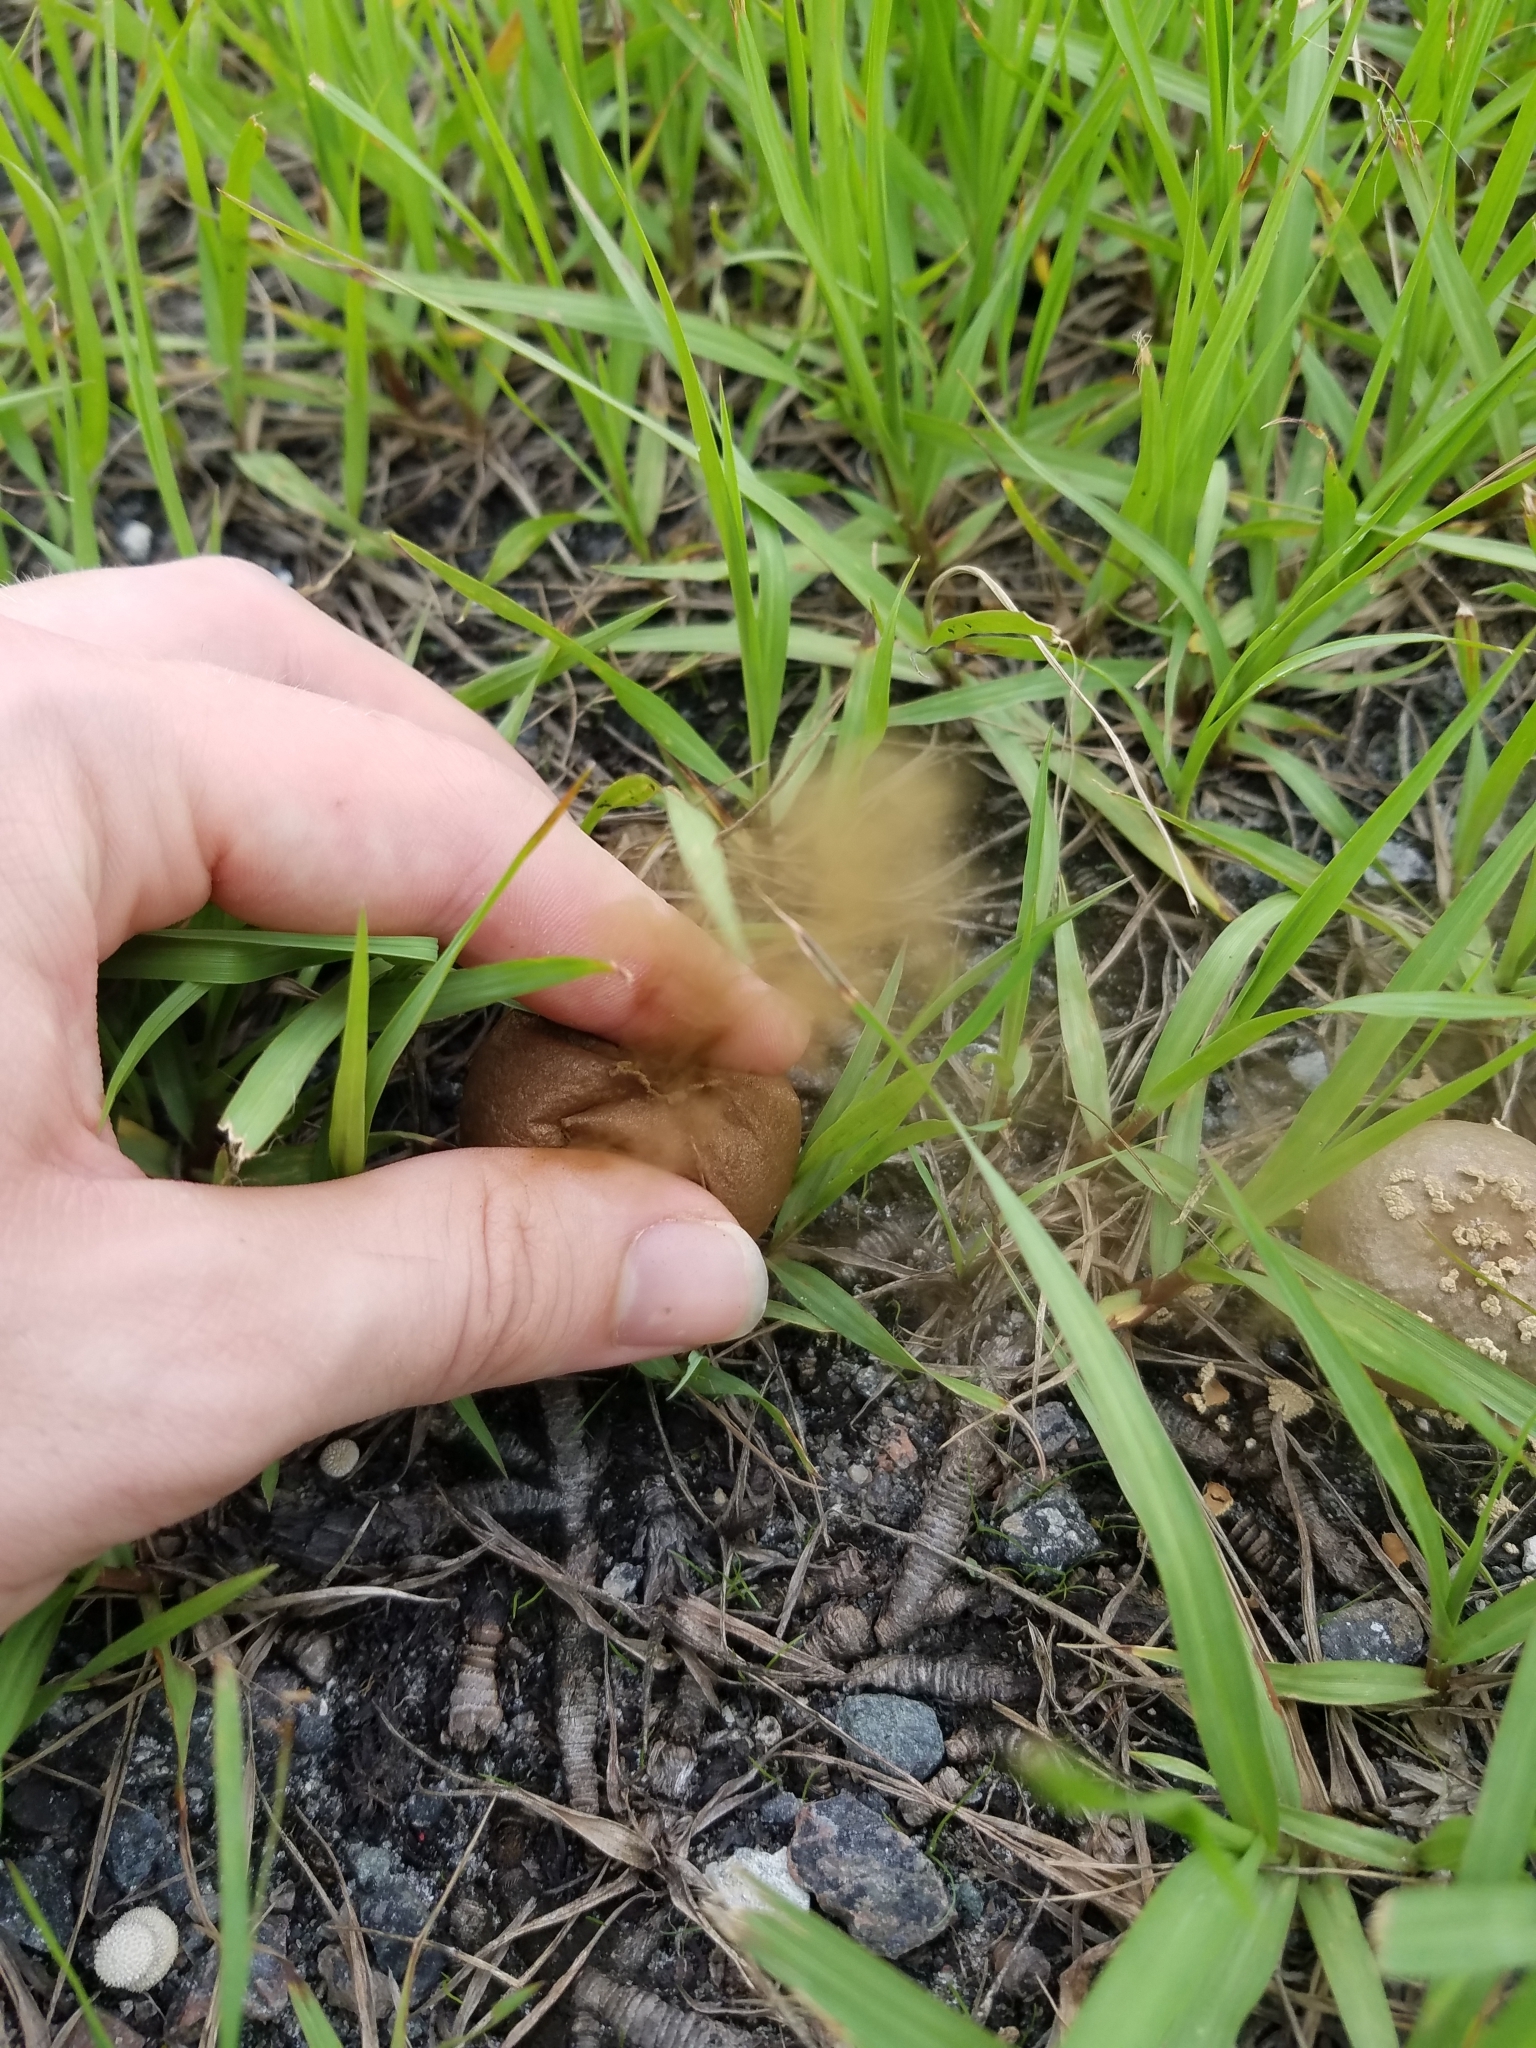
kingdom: Fungi
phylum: Basidiomycota
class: Agaricomycetes
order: Agaricales
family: Lycoperdaceae
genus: Lycoperdon
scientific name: Lycoperdon perlatum
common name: Common puffball
